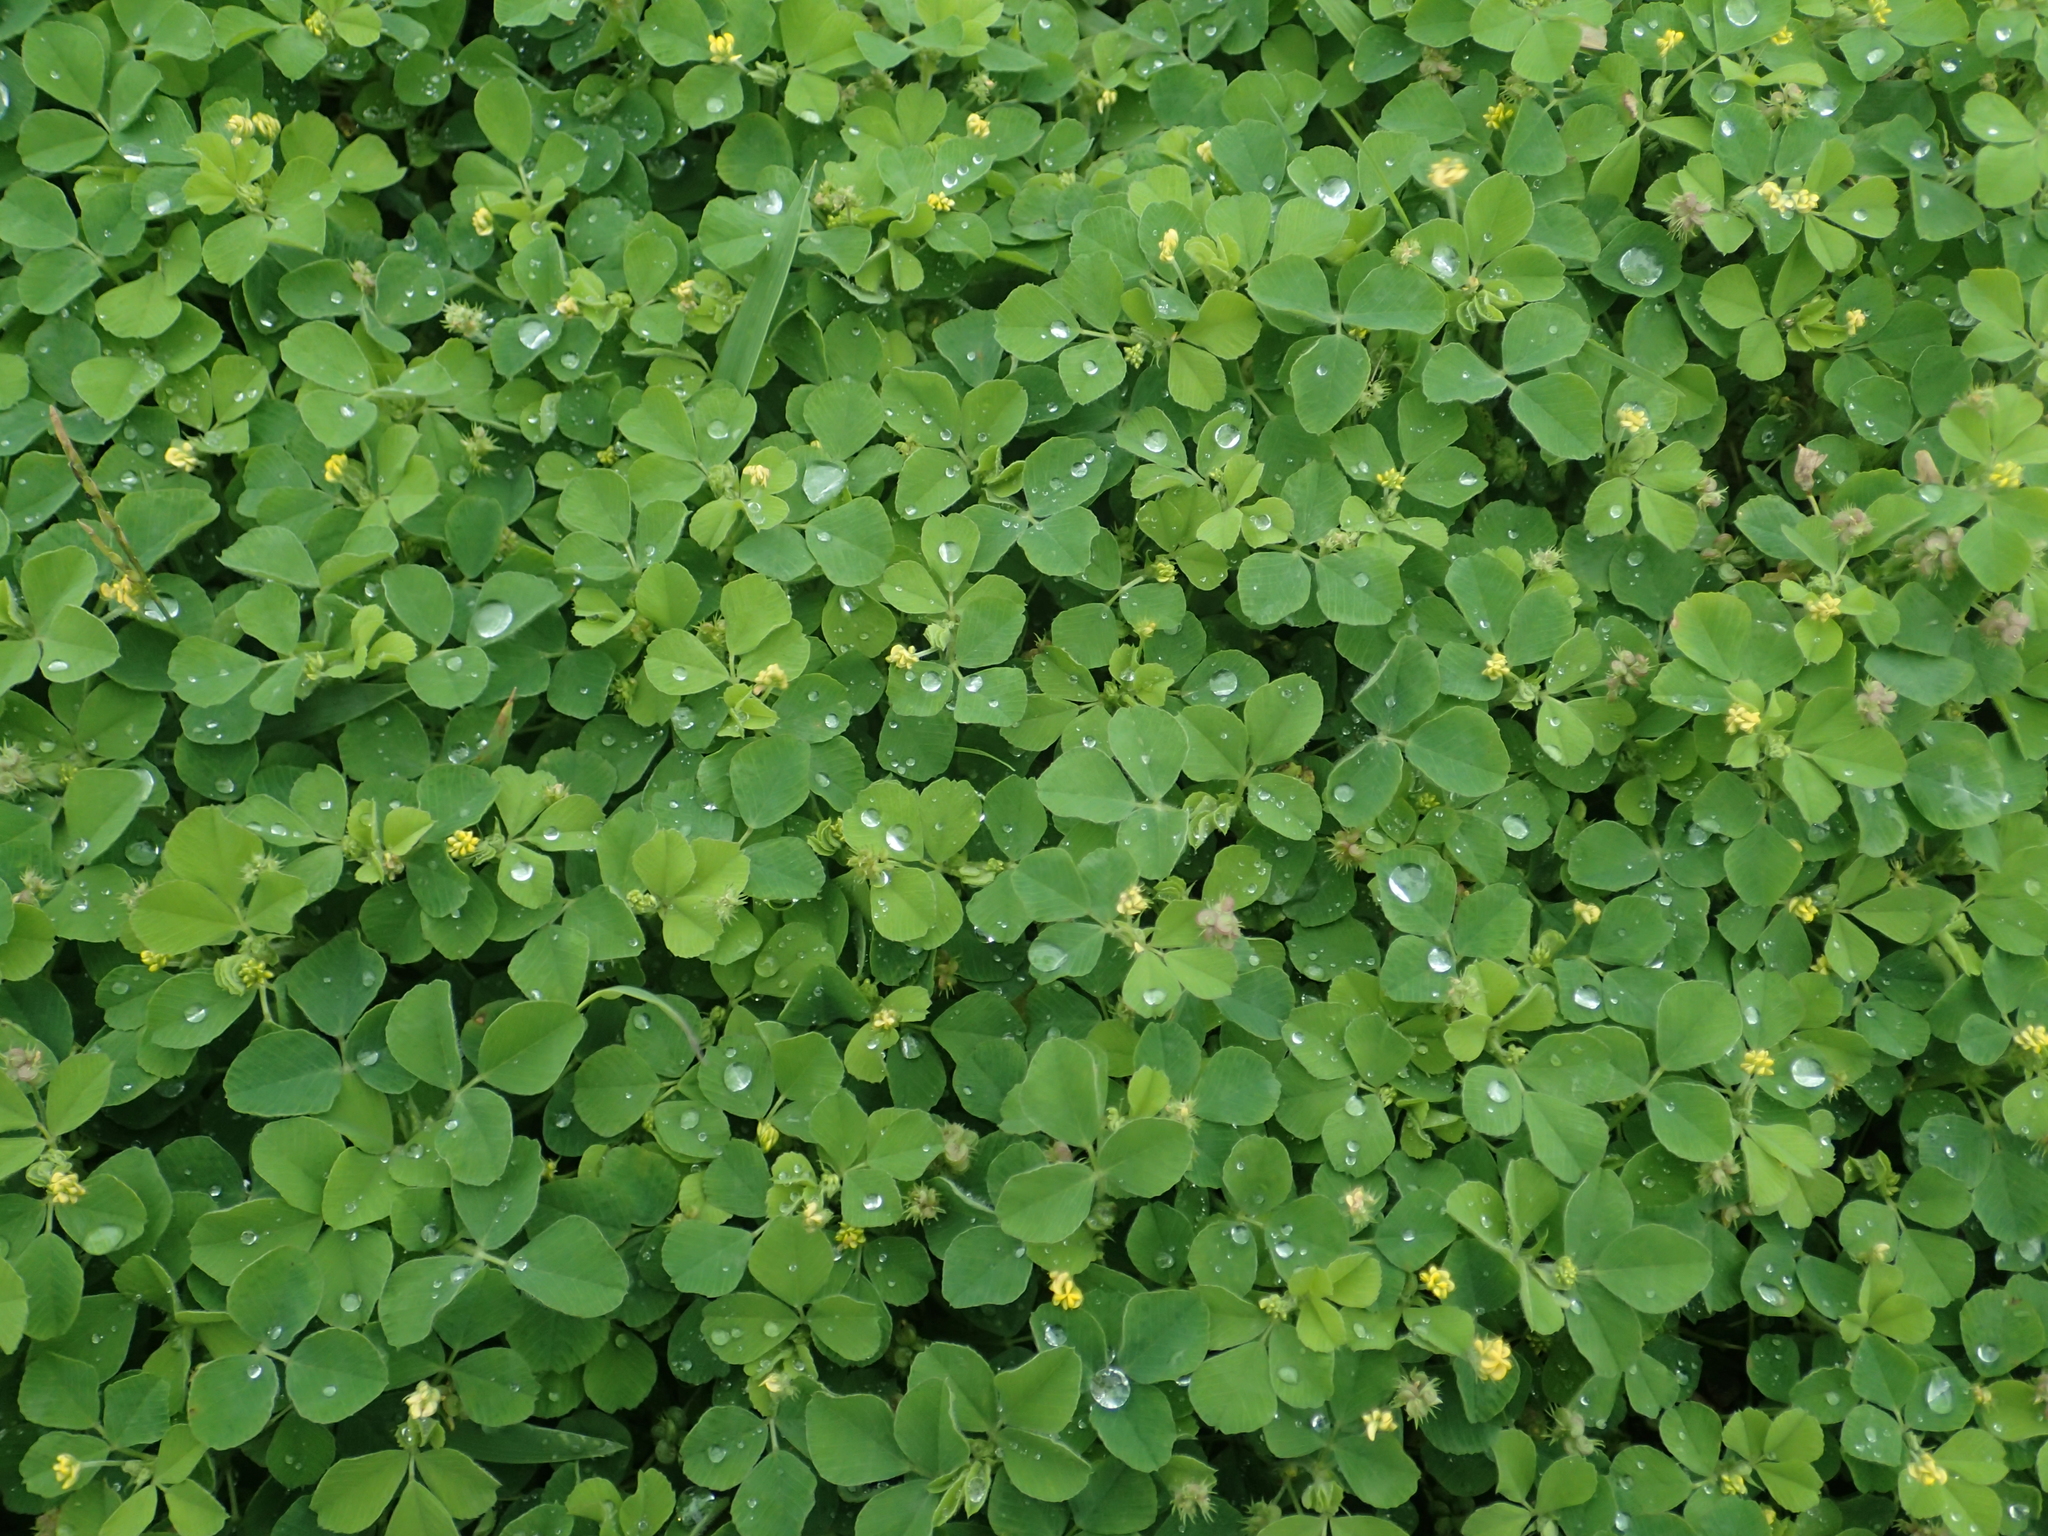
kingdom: Plantae
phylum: Tracheophyta
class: Magnoliopsida
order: Fabales
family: Fabaceae
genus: Medicago
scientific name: Medicago lupulina
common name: Black medick
